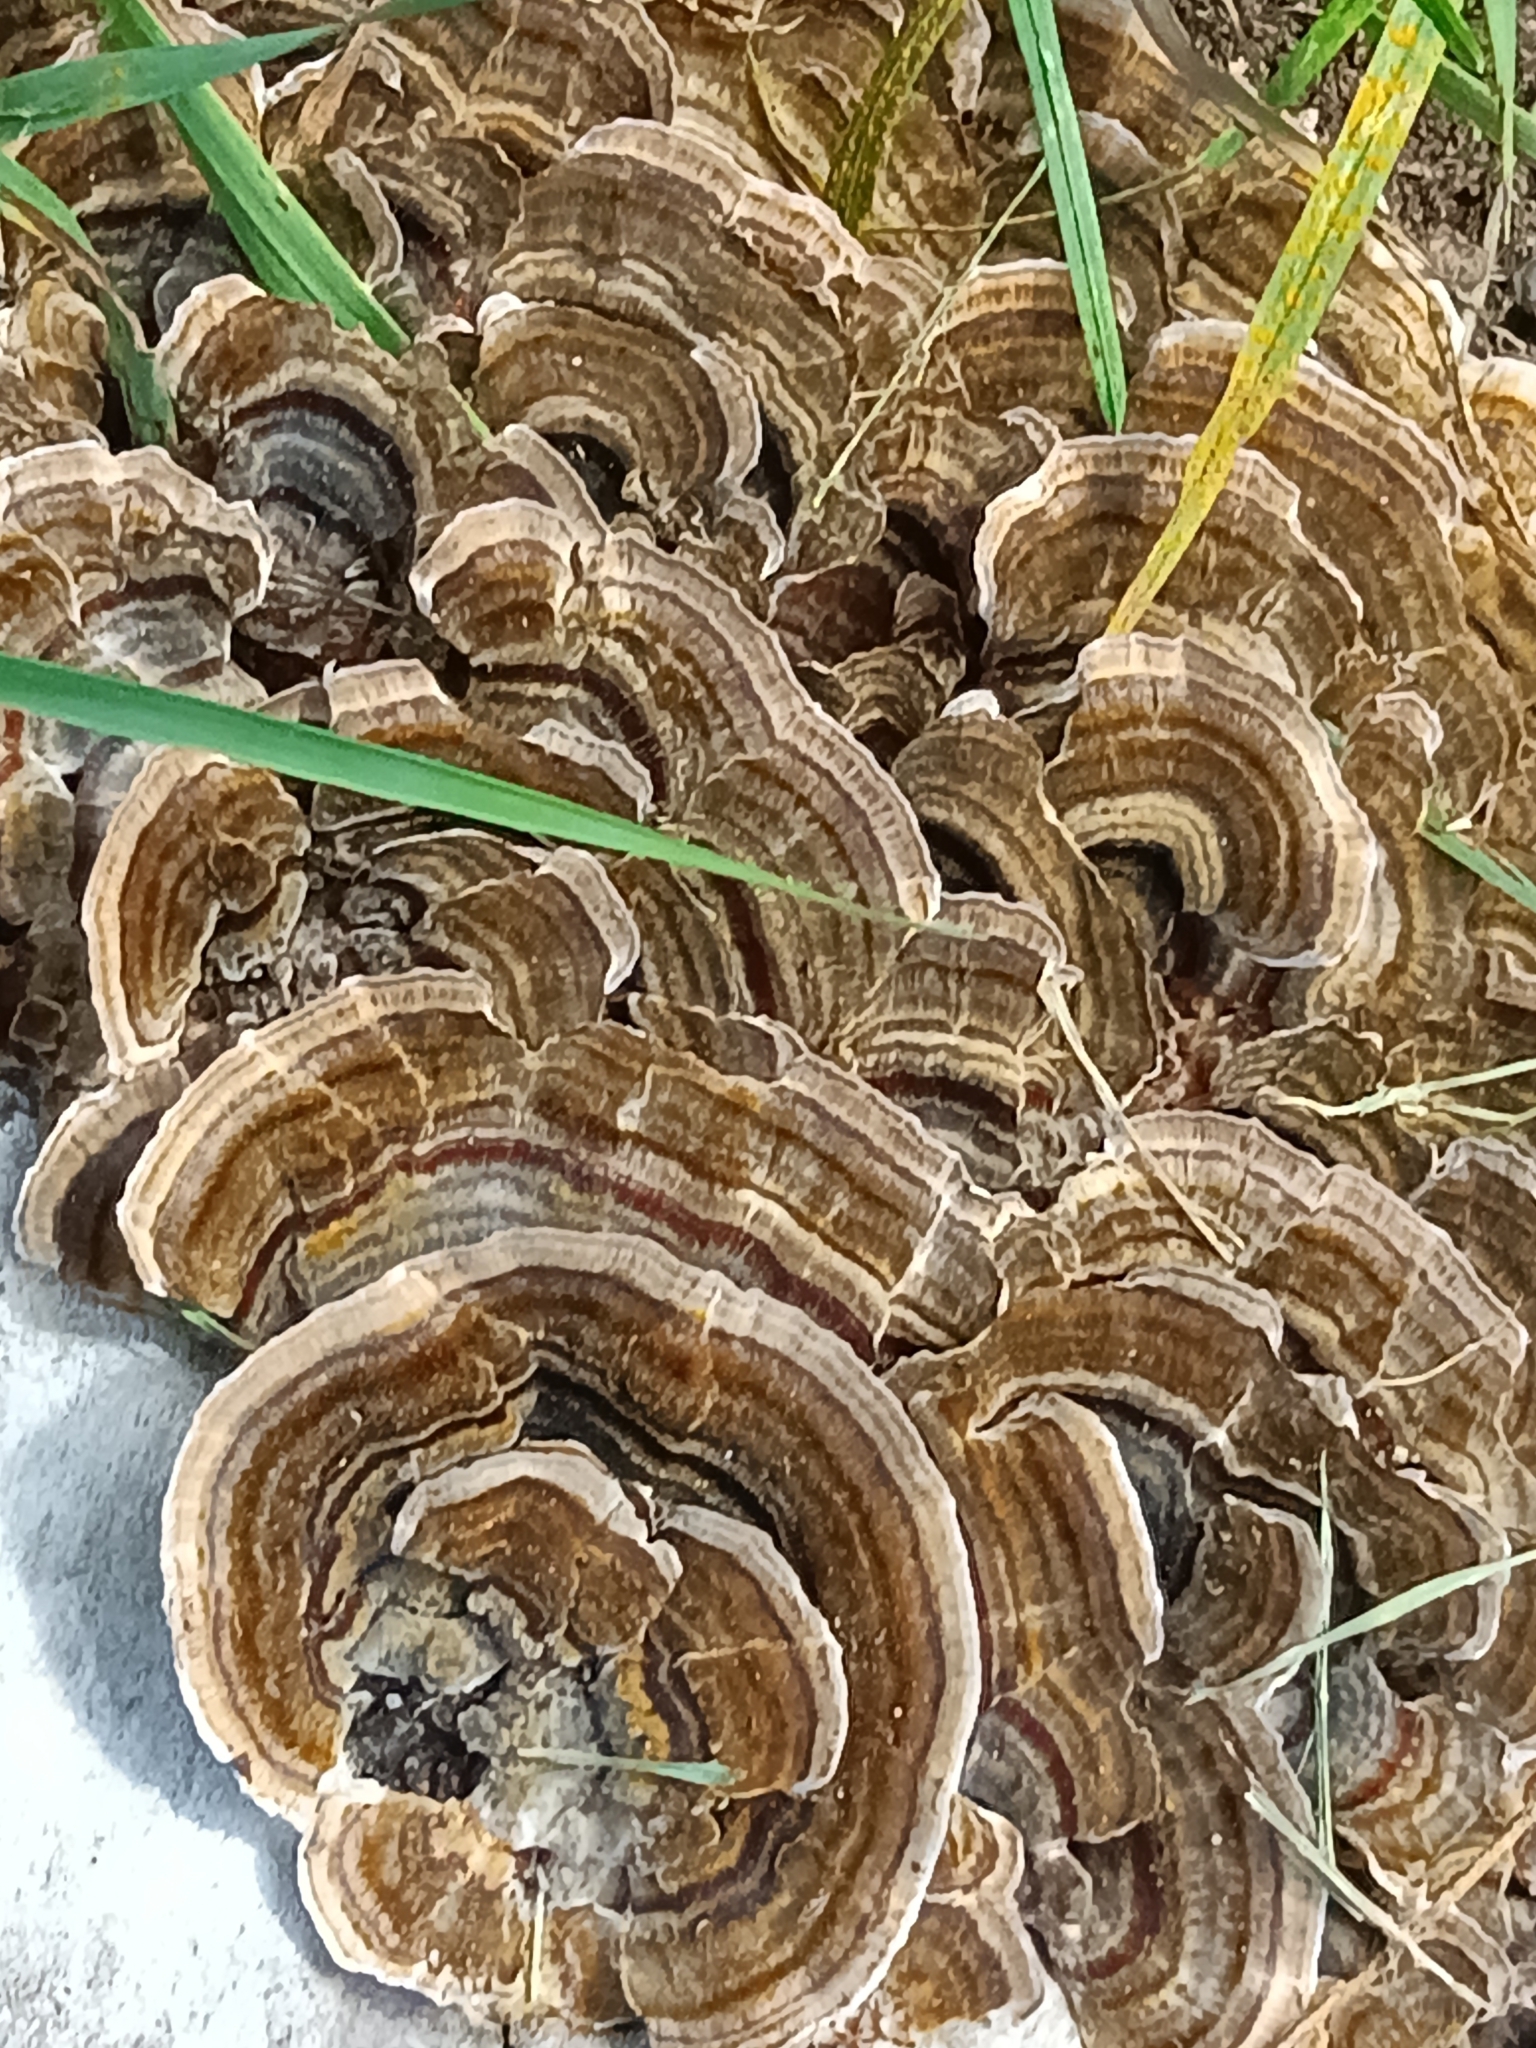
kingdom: Fungi
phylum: Basidiomycota
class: Agaricomycetes
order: Polyporales
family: Polyporaceae
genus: Trametes
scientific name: Trametes versicolor
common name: Turkeytail
